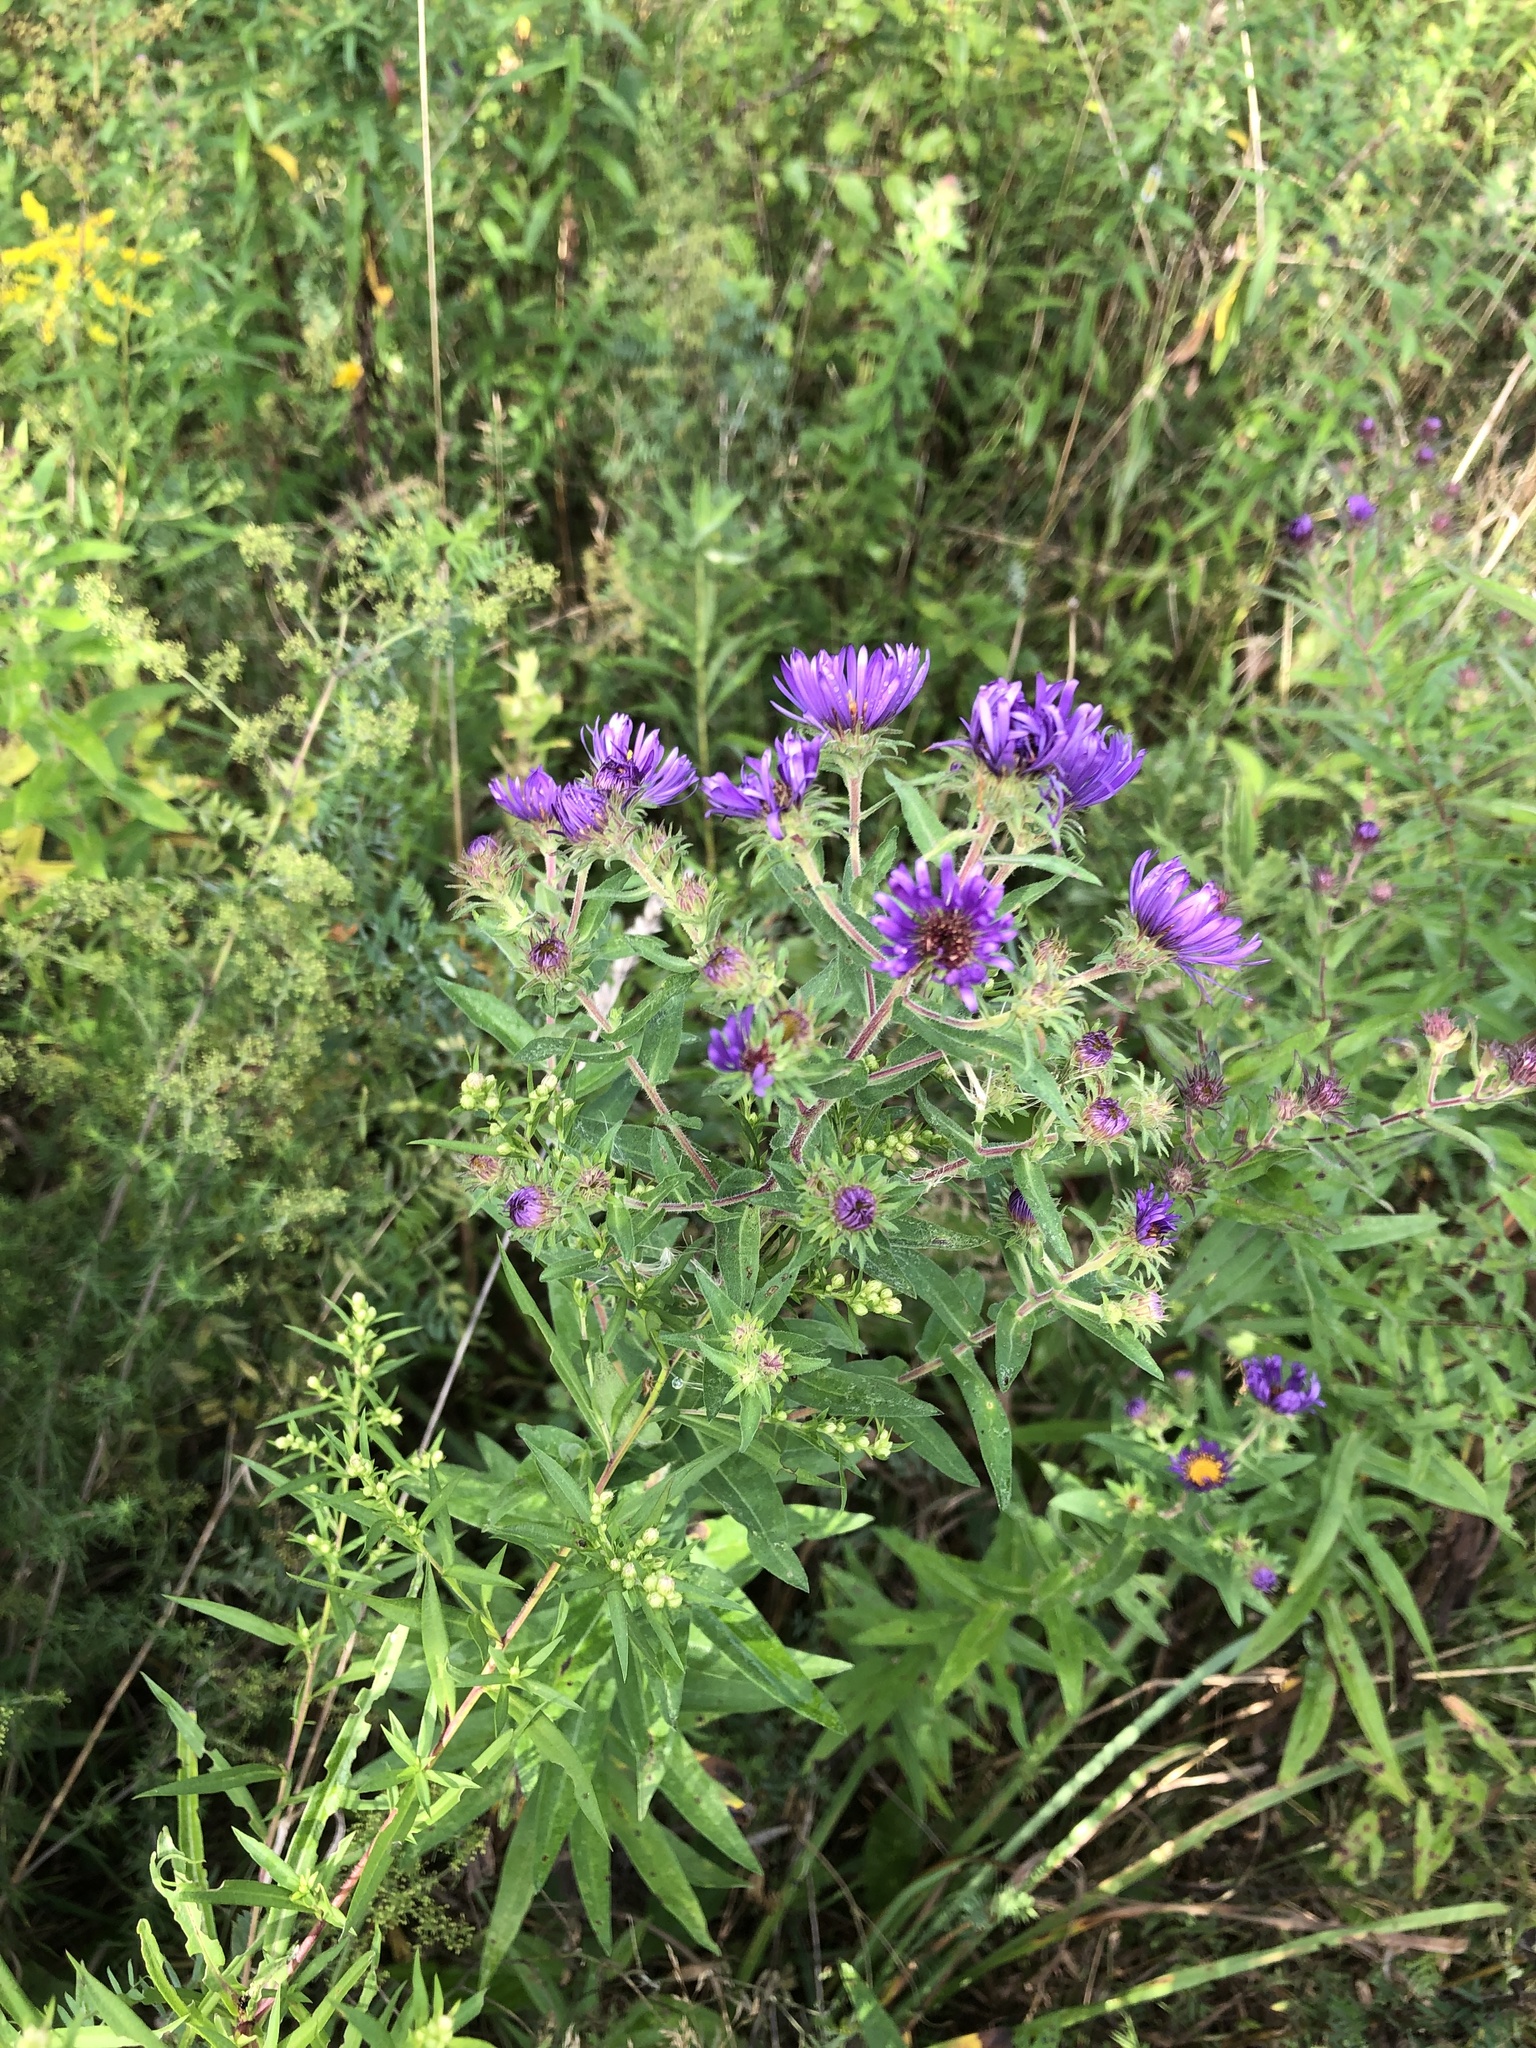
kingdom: Plantae
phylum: Tracheophyta
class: Magnoliopsida
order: Asterales
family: Asteraceae
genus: Symphyotrichum
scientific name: Symphyotrichum novae-angliae
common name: Michaelmas daisy
